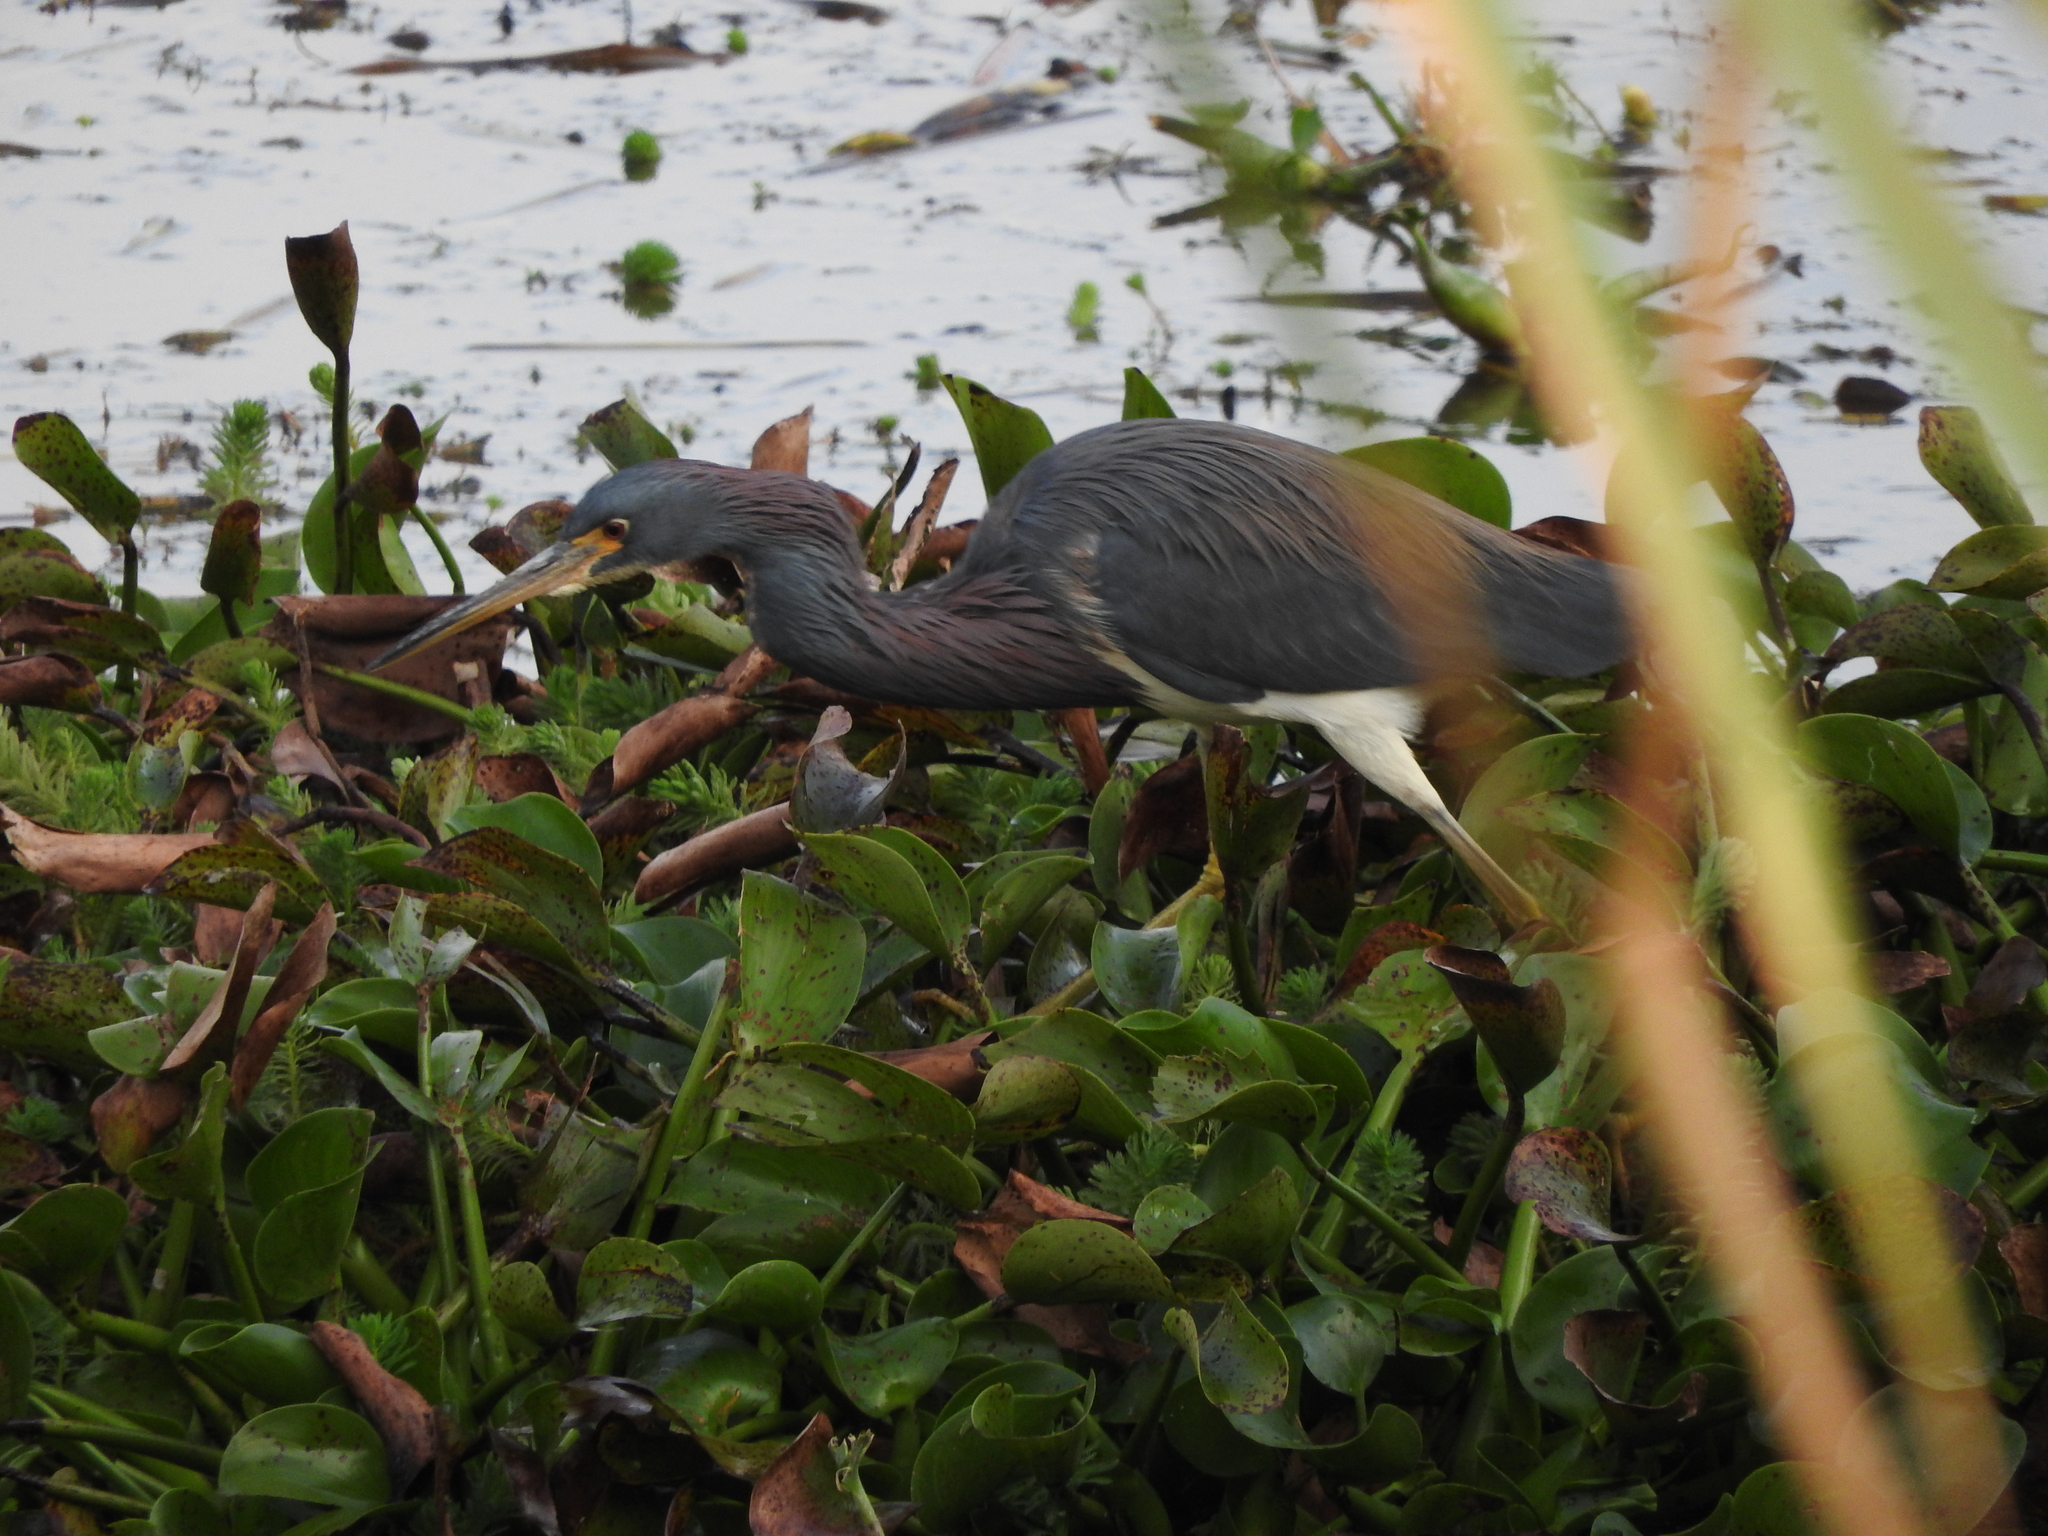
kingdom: Animalia
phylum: Chordata
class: Aves
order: Pelecaniformes
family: Ardeidae
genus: Egretta
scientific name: Egretta tricolor
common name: Tricolored heron
